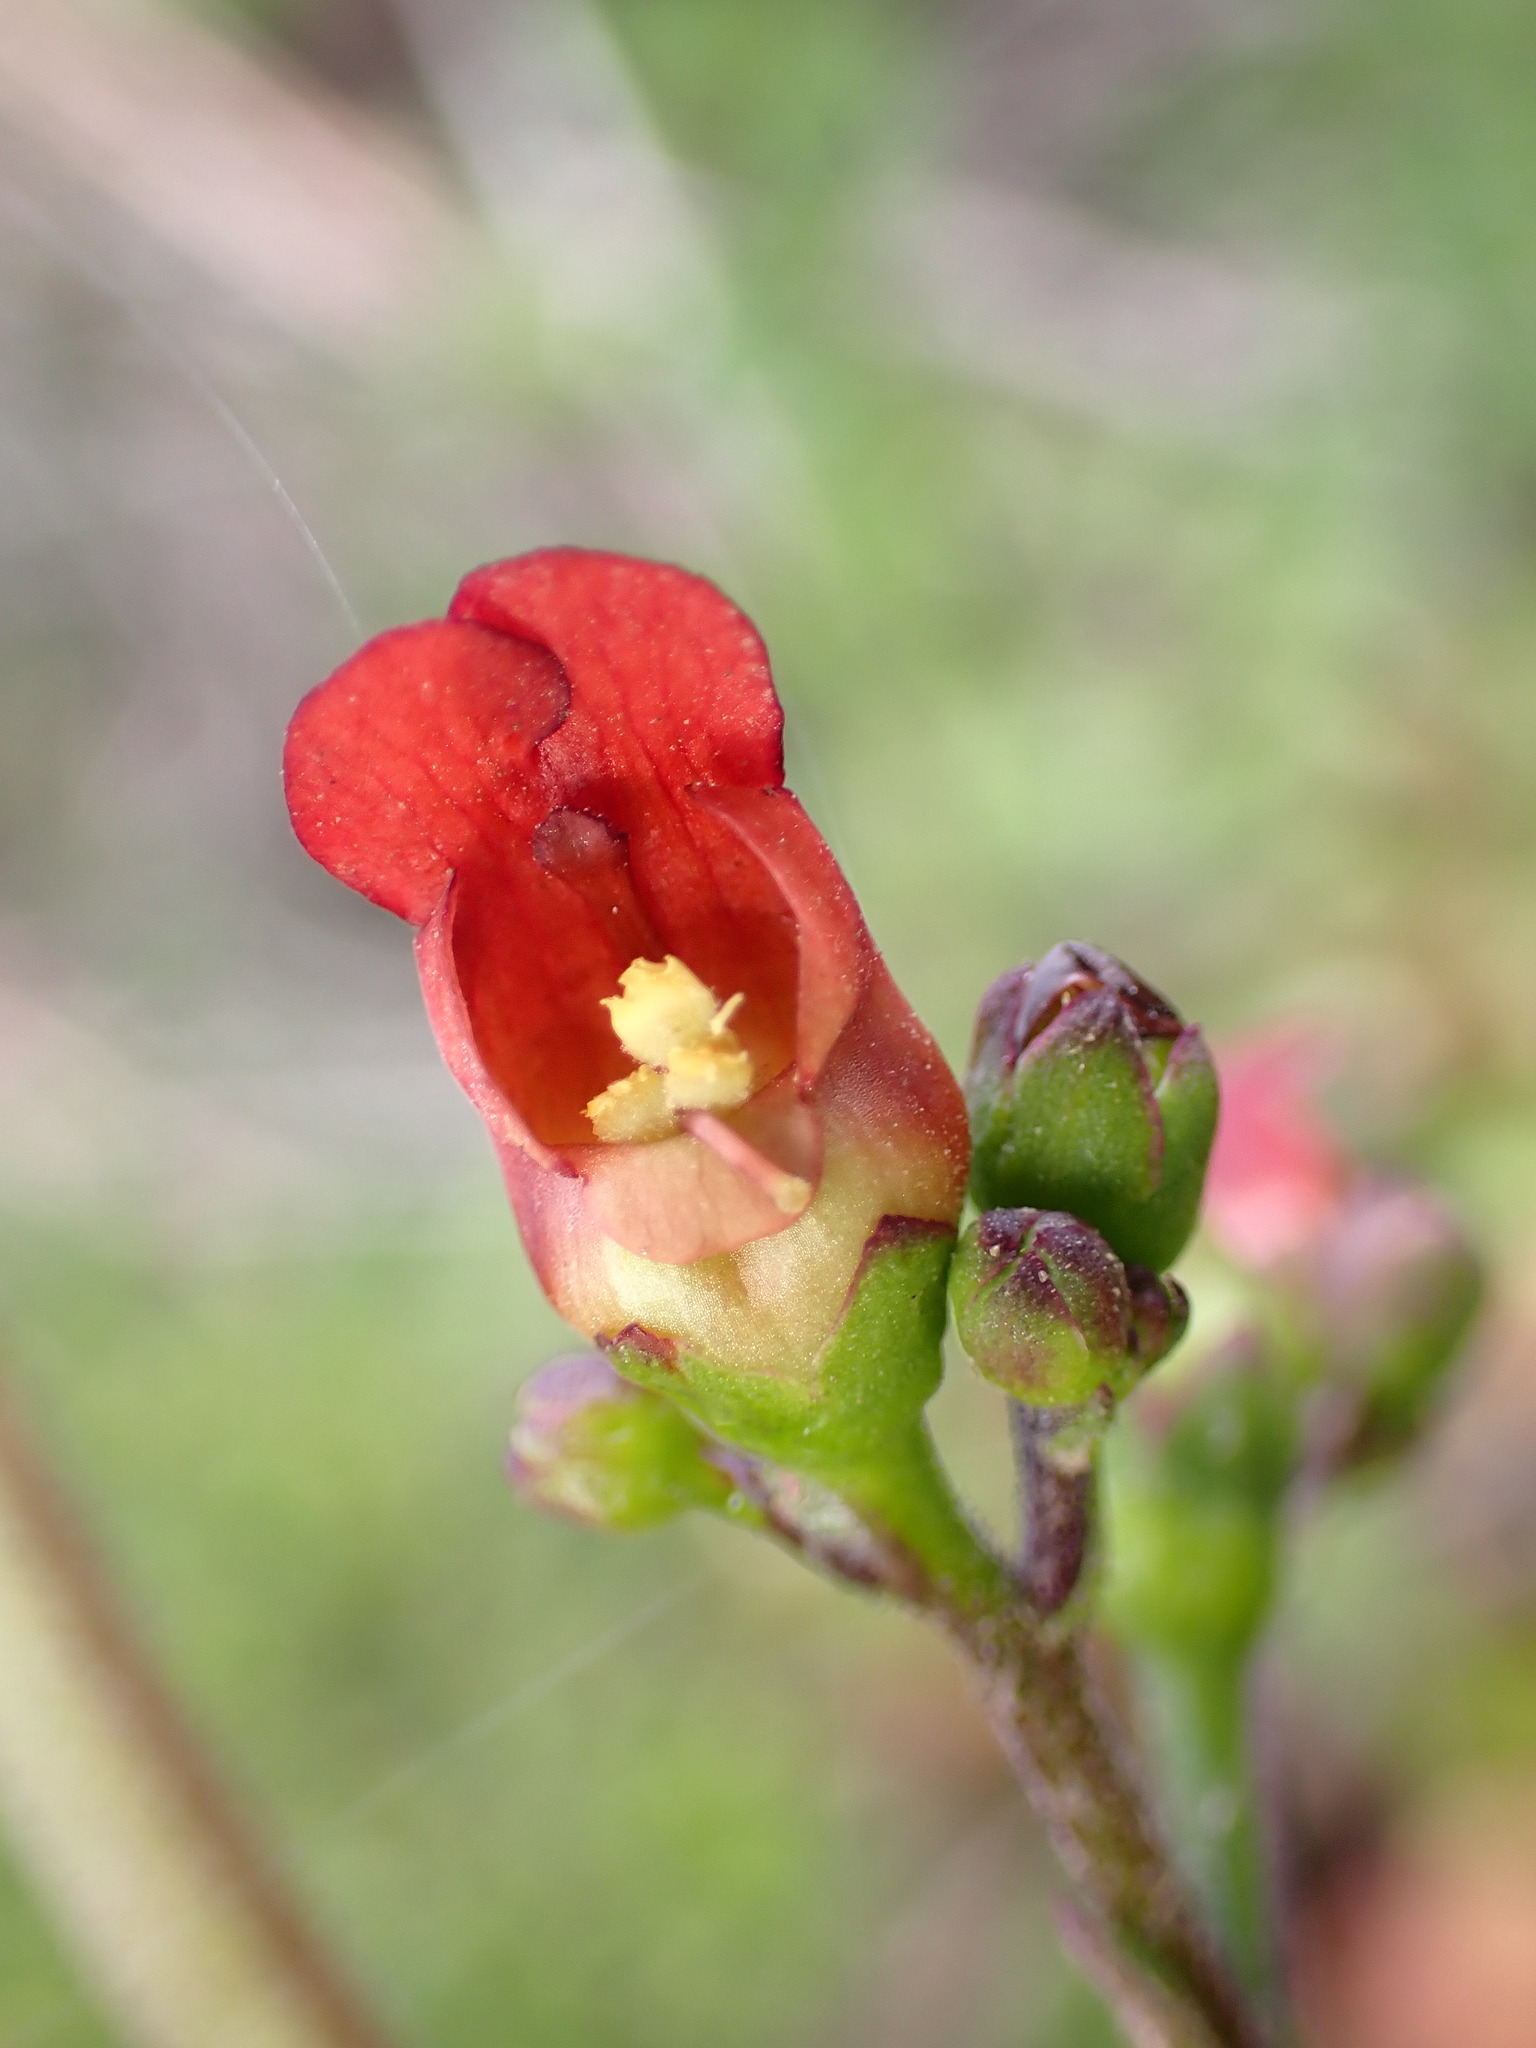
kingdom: Plantae
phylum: Tracheophyta
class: Magnoliopsida
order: Lamiales
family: Scrophulariaceae
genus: Scrophularia
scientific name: Scrophularia californica
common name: California figwort
